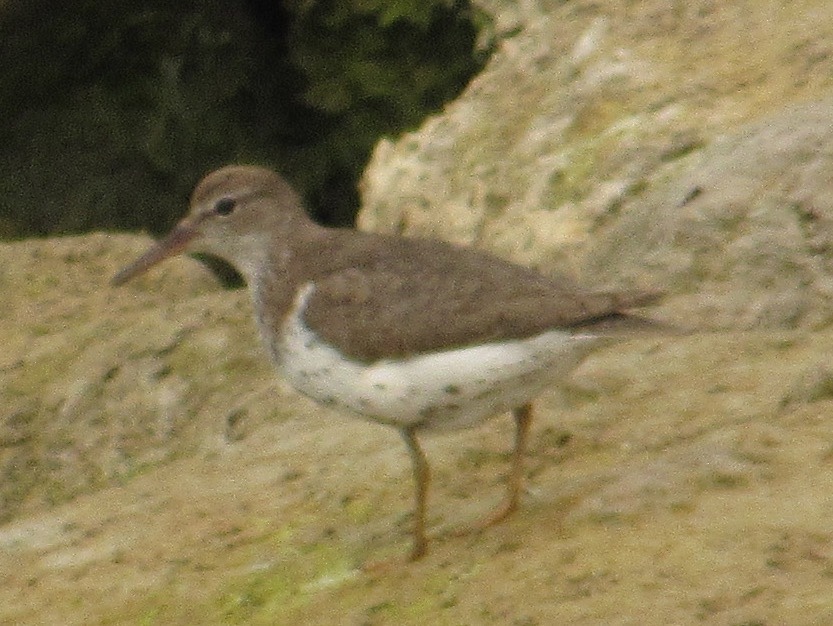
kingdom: Animalia
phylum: Chordata
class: Aves
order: Charadriiformes
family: Scolopacidae
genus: Actitis
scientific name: Actitis macularius
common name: Spotted sandpiper
